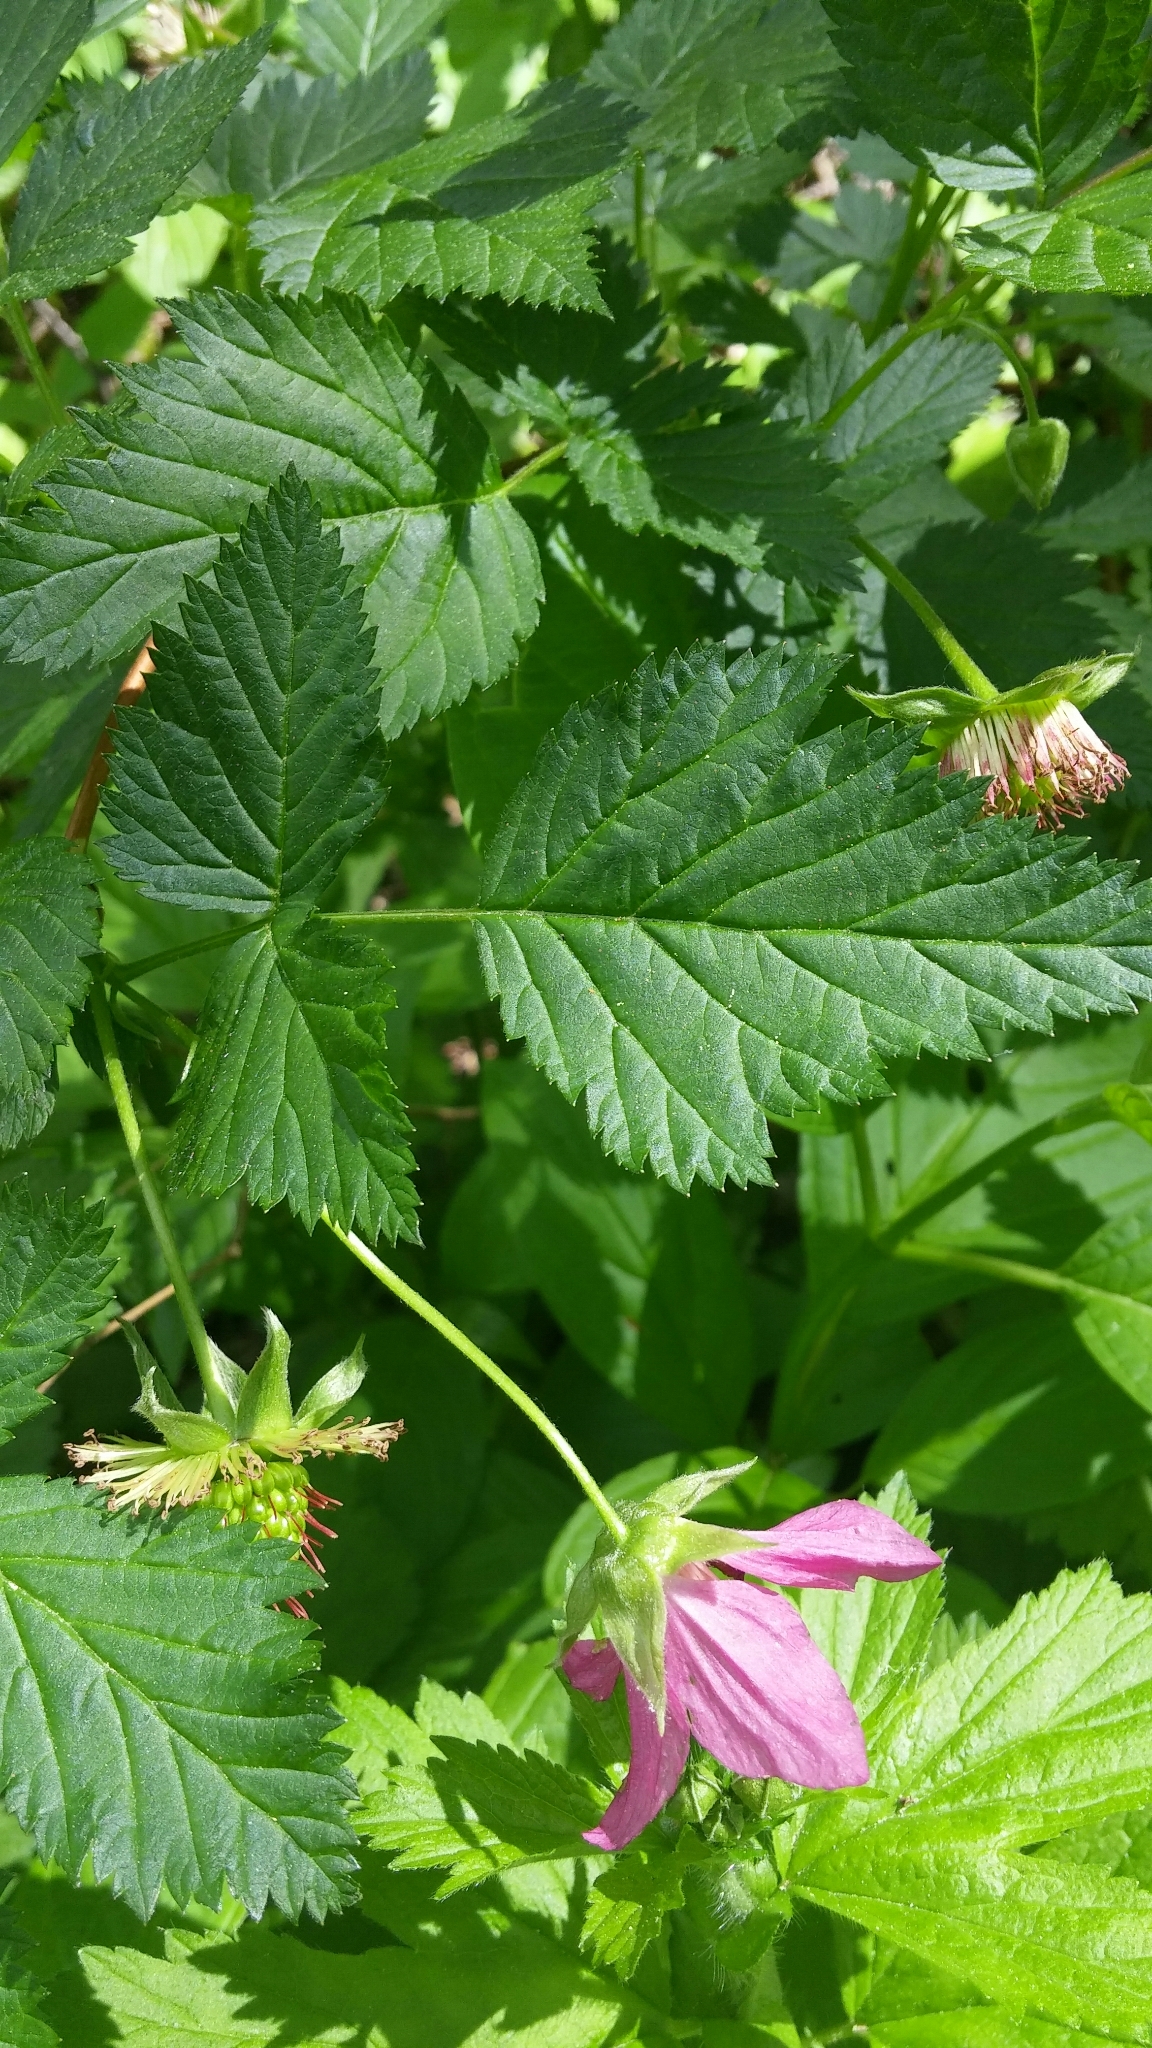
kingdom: Plantae
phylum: Tracheophyta
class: Magnoliopsida
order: Rosales
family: Rosaceae
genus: Rubus
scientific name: Rubus spectabilis
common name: Salmonberry
